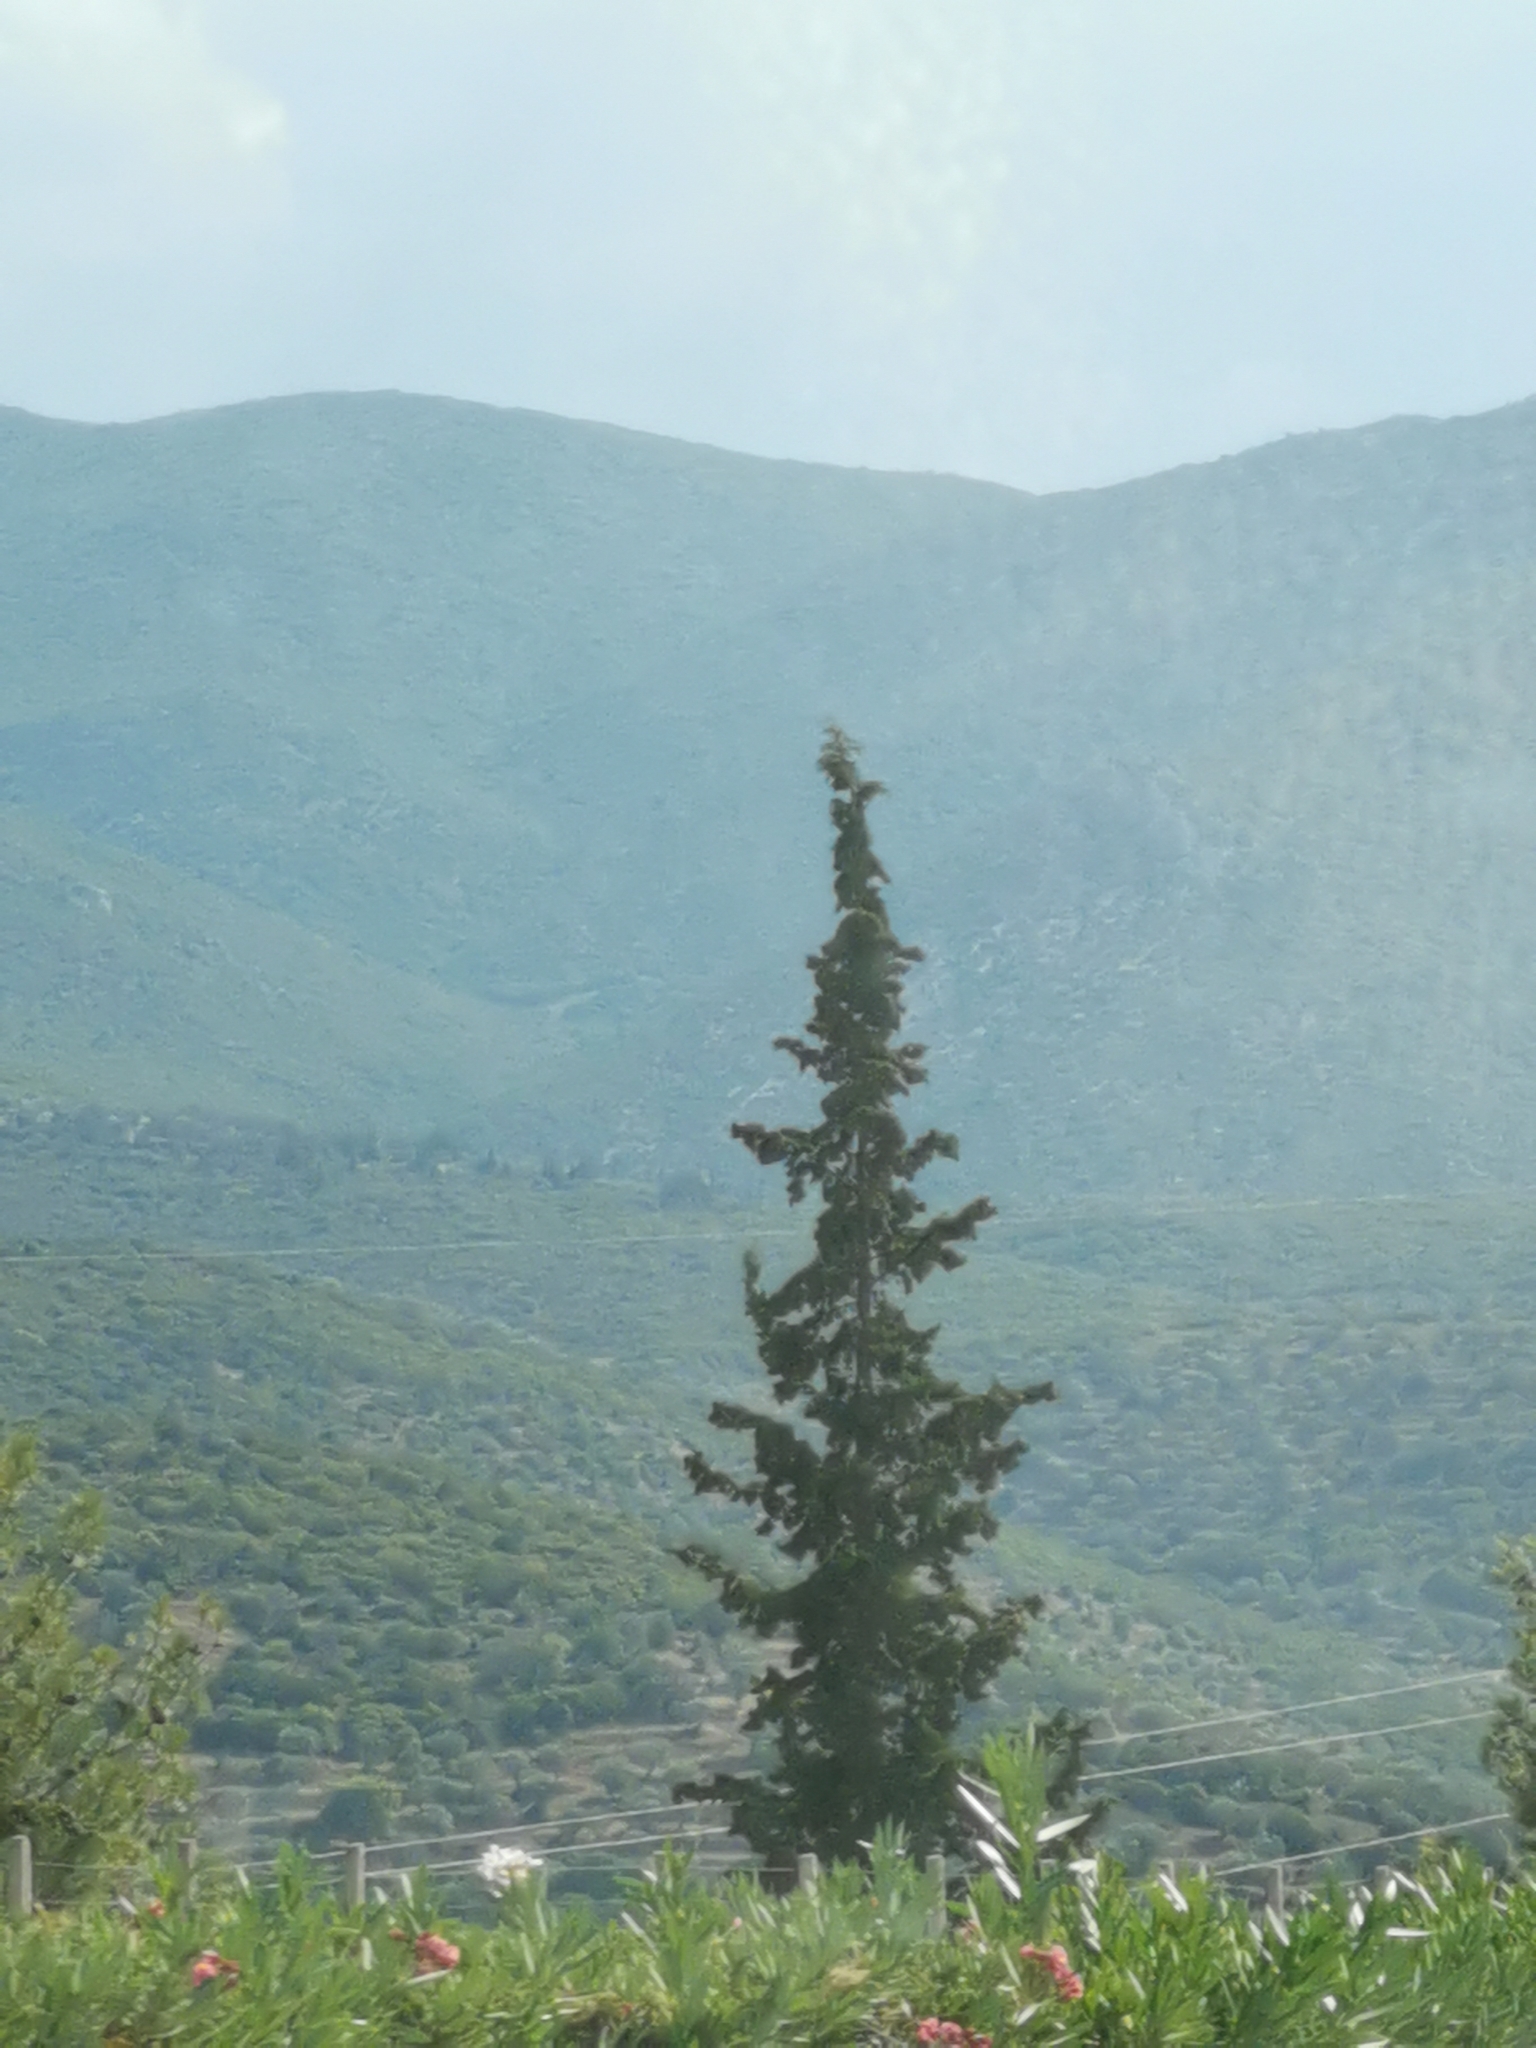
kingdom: Plantae
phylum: Tracheophyta
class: Pinopsida
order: Pinales
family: Cupressaceae
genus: Cupressus
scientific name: Cupressus sempervirens
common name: Italian cypress
